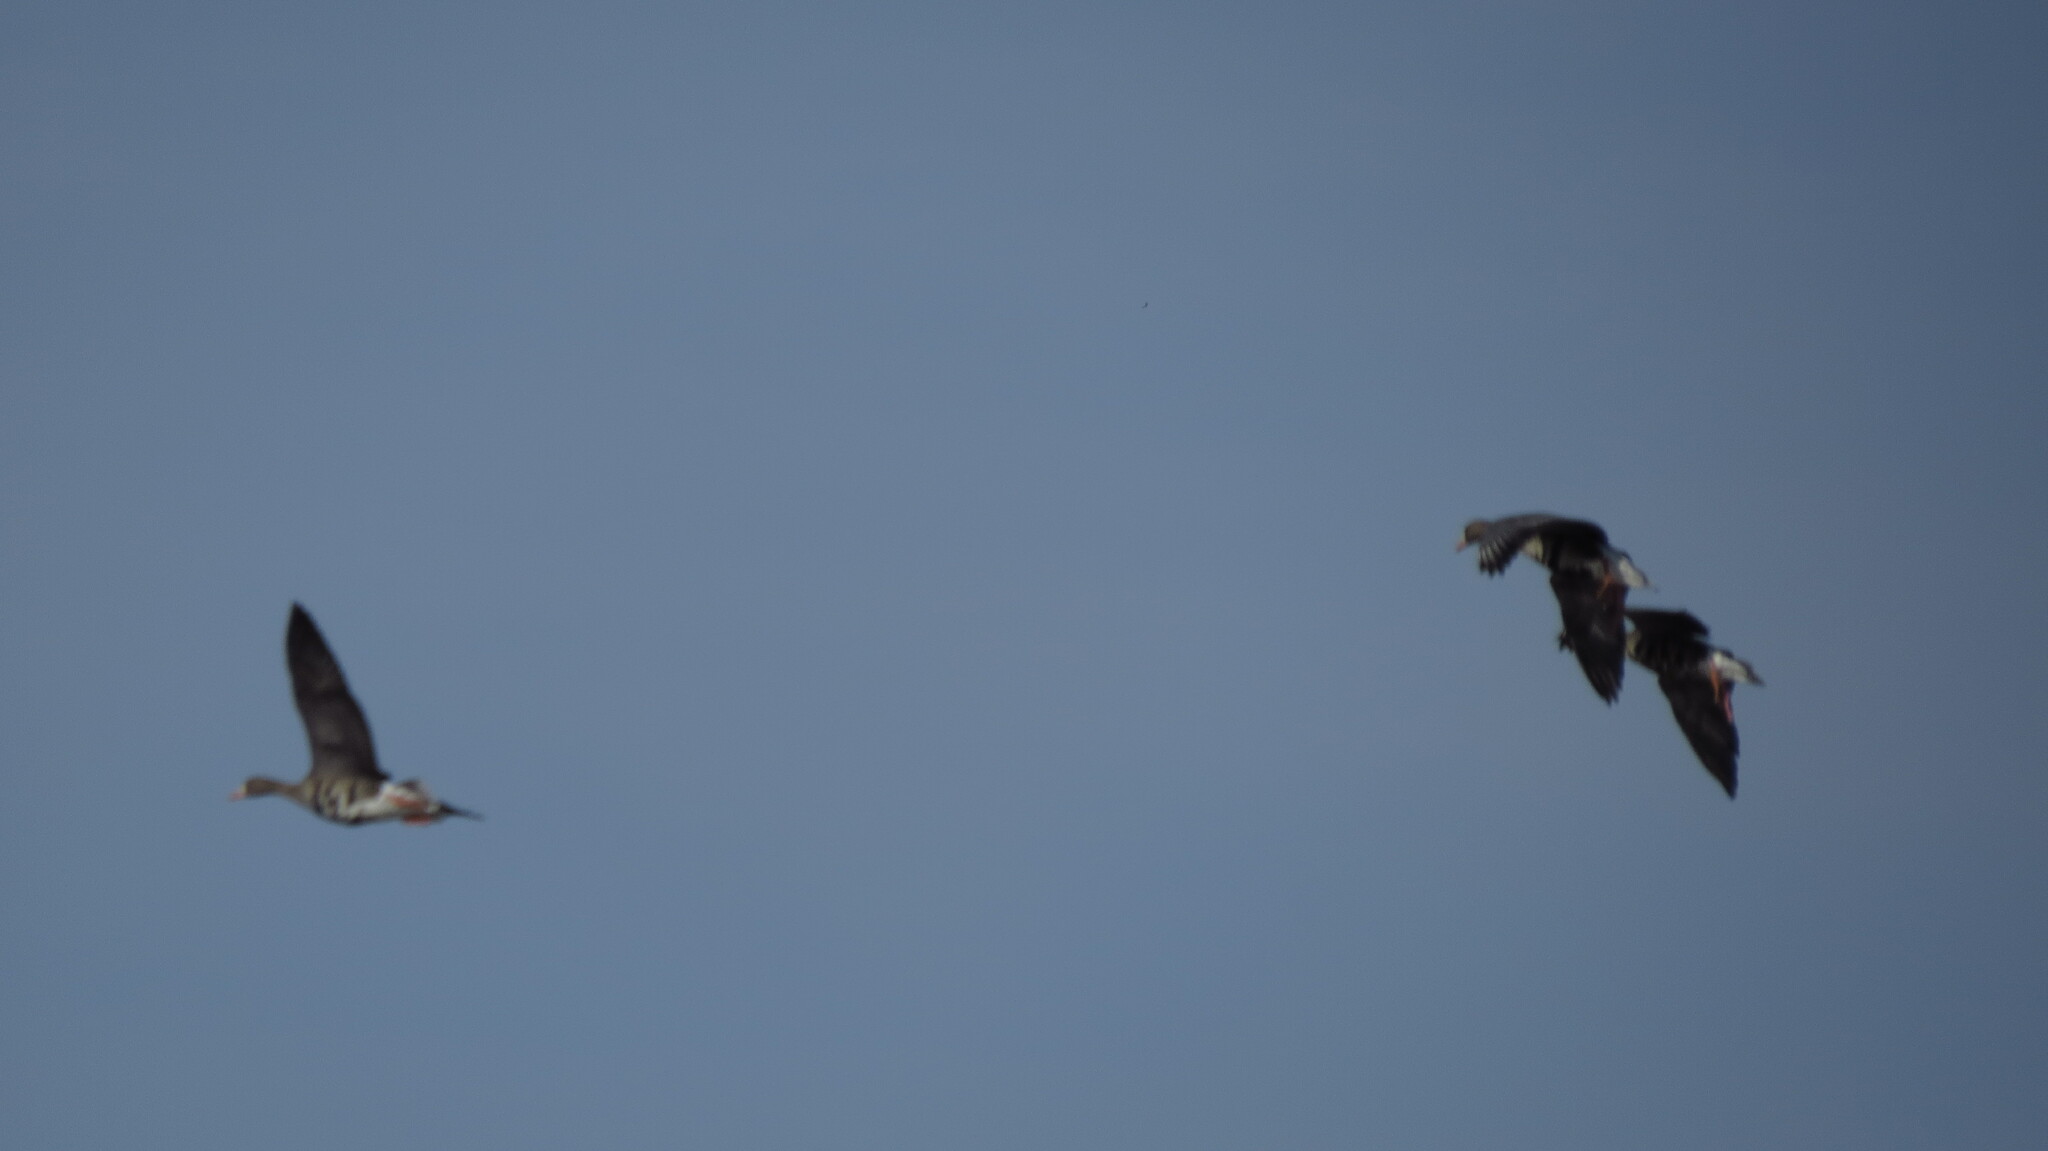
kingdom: Animalia
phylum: Chordata
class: Aves
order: Anseriformes
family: Anatidae
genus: Anser
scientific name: Anser albifrons
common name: Greater white-fronted goose
